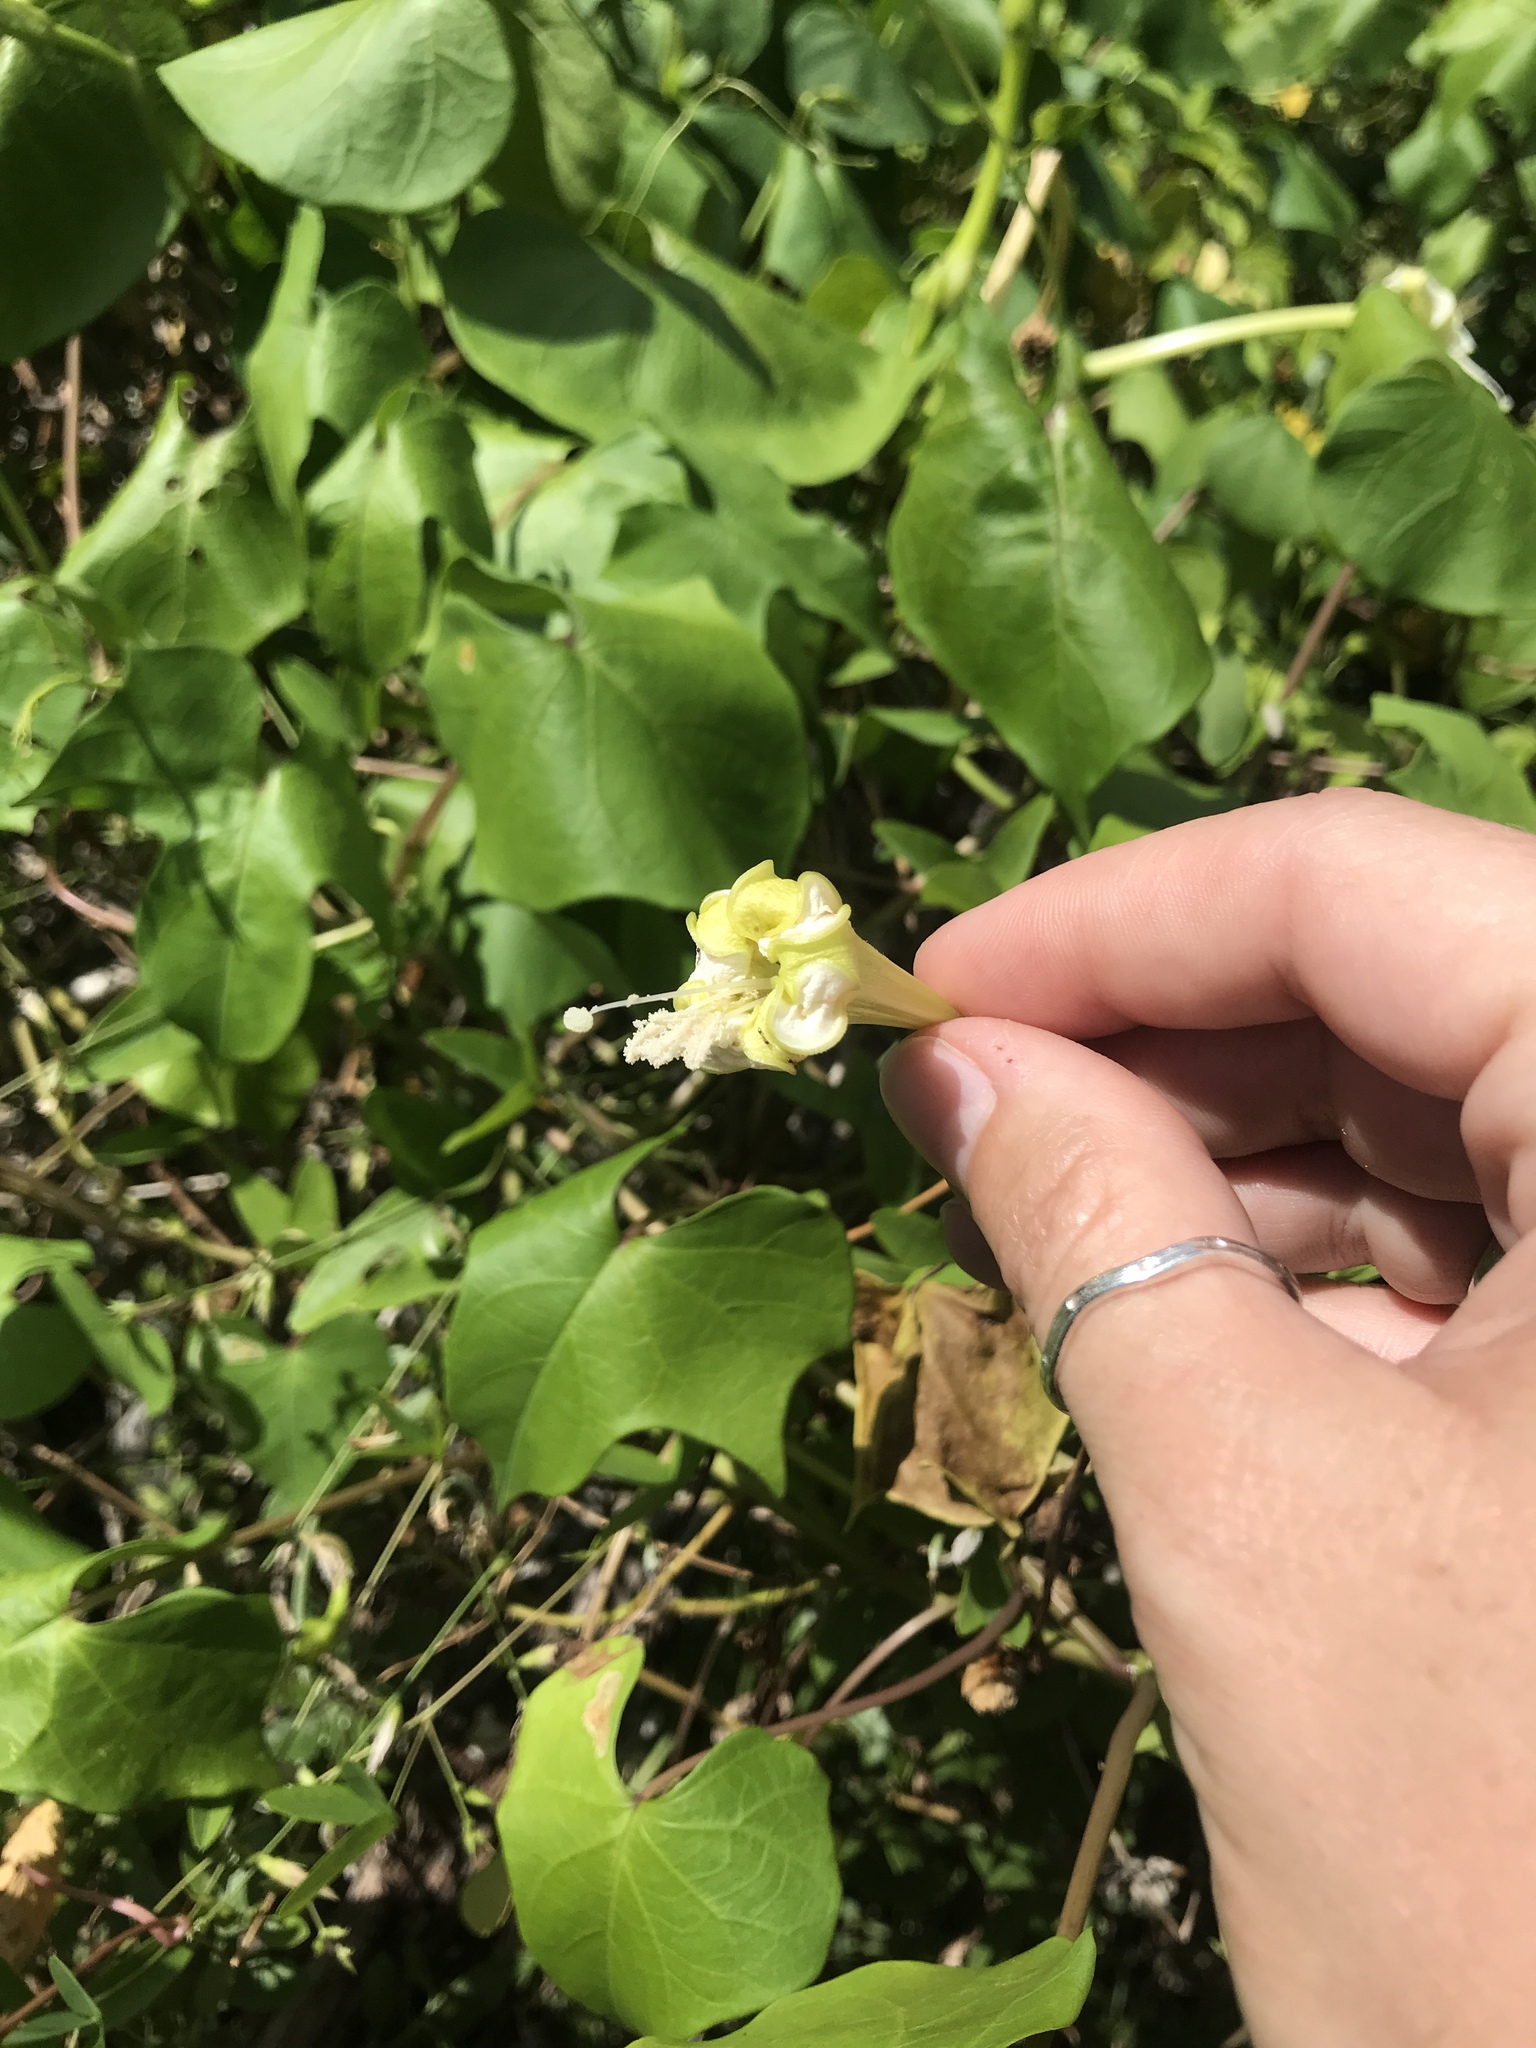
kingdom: Plantae
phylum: Tracheophyta
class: Magnoliopsida
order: Solanales
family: Convolvulaceae
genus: Ipomoea
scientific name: Ipomoea alba
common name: Moonflower
